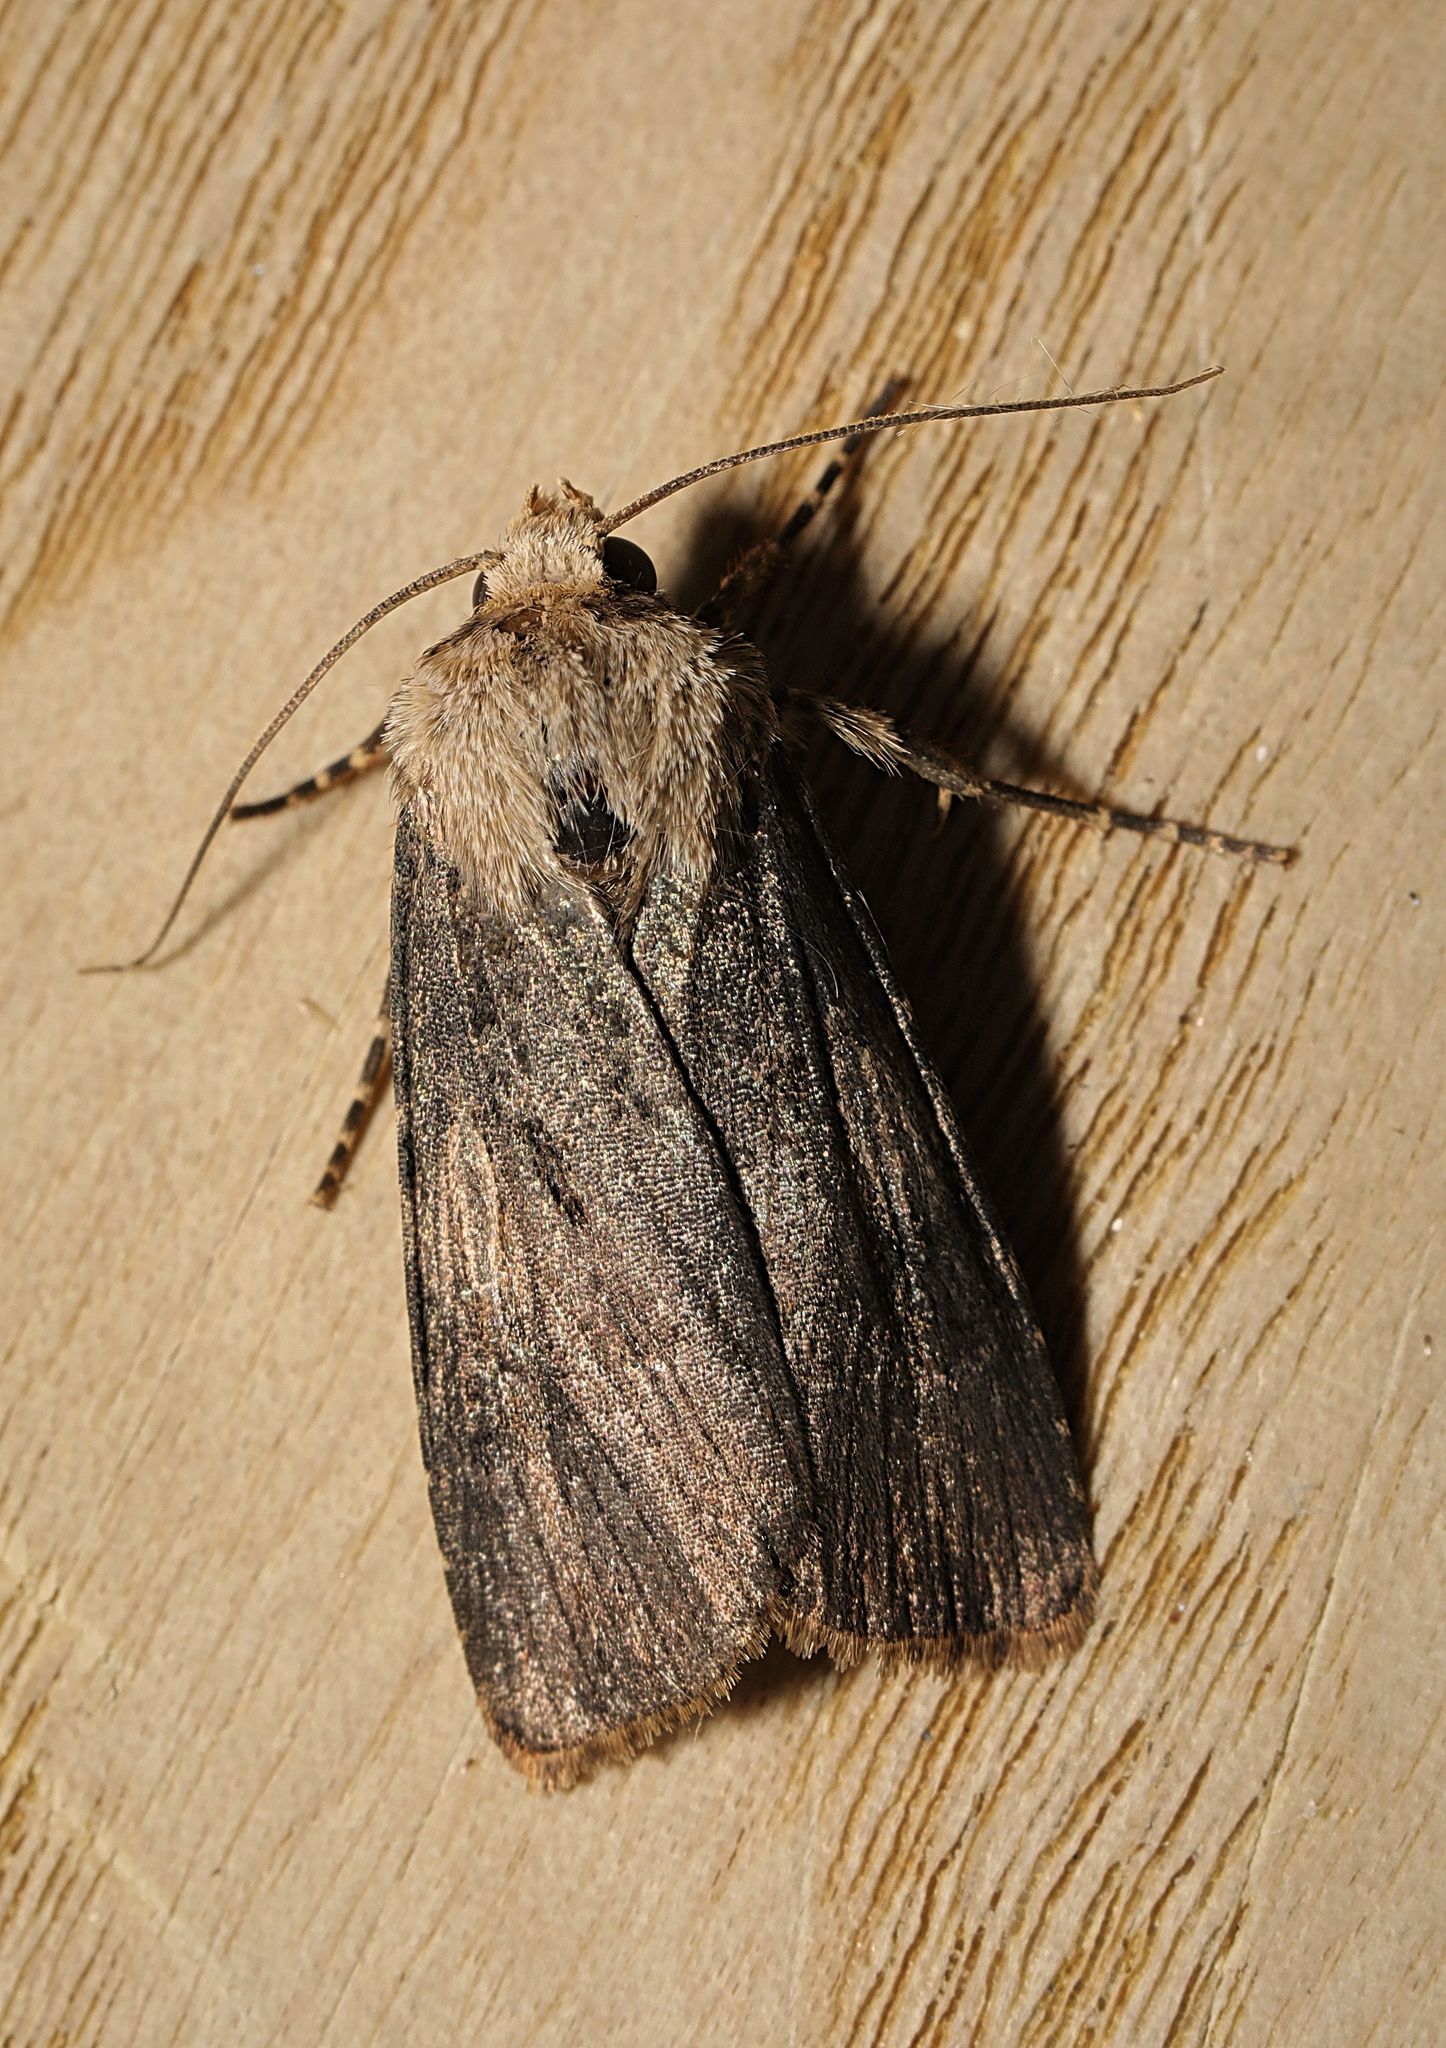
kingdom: Animalia
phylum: Arthropoda
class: Insecta
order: Lepidoptera
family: Noctuidae
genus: Agrotis
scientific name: Agrotis puta
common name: Shuttle-shaped dart
